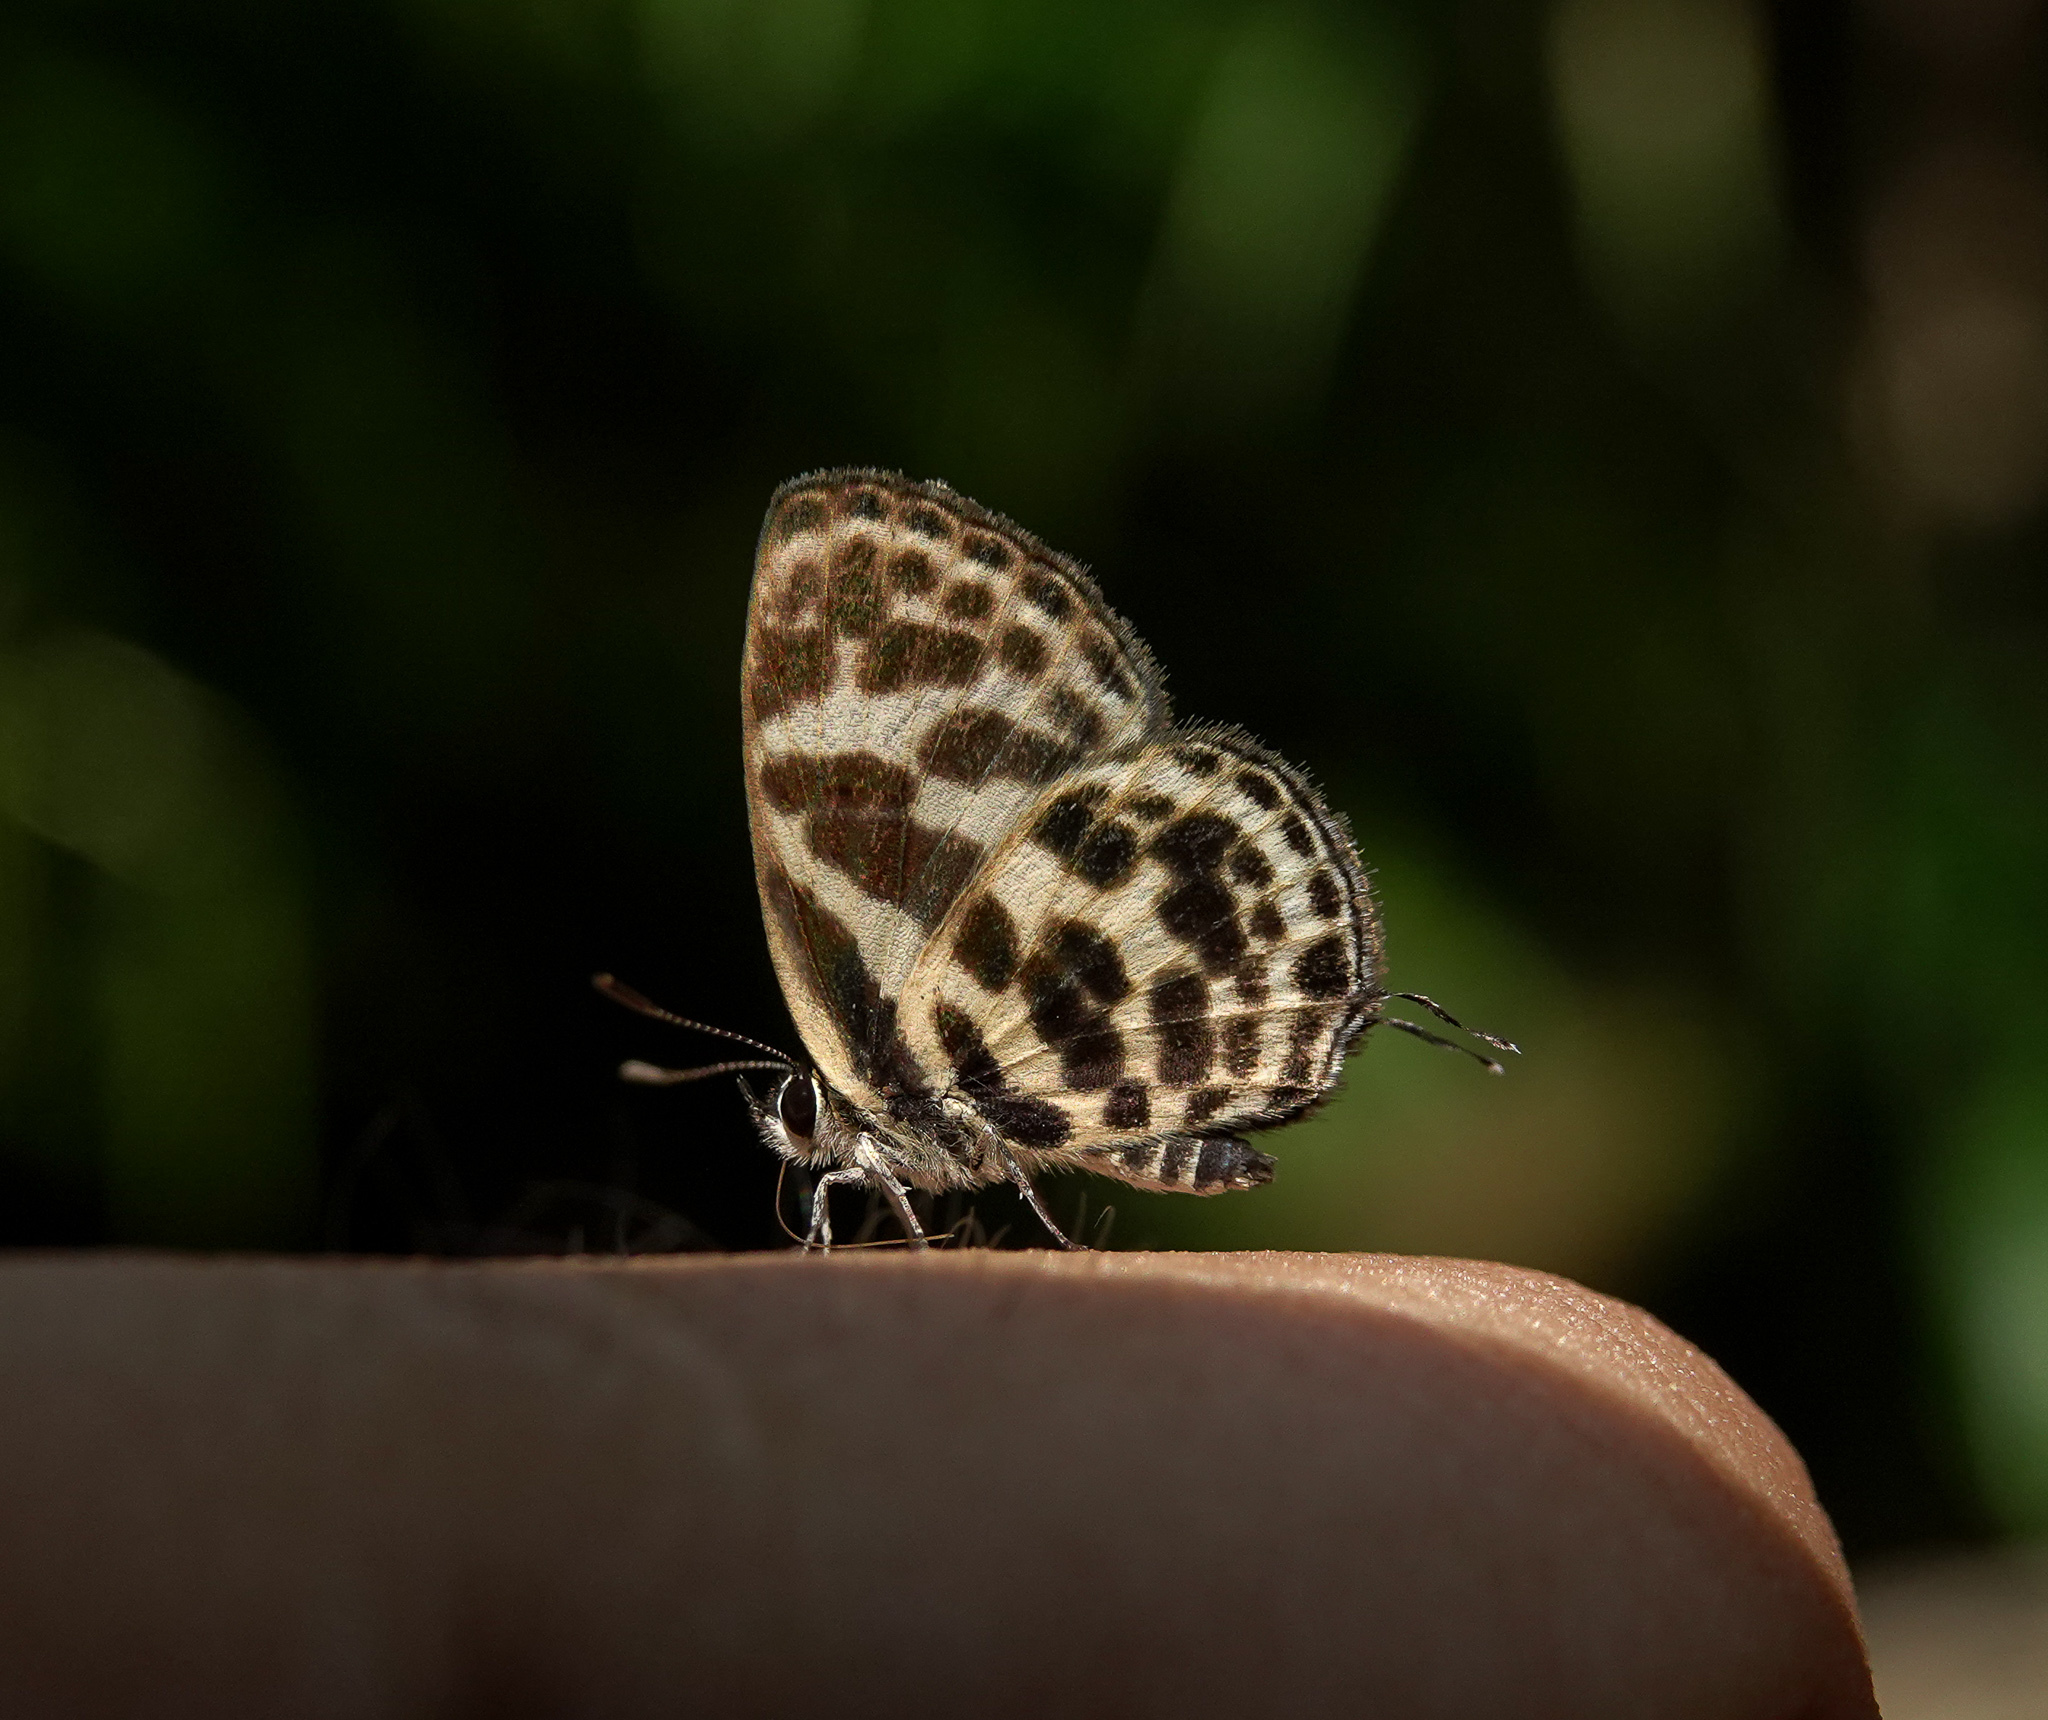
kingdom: Animalia
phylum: Arthropoda
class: Insecta
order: Lepidoptera
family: Lycaenidae
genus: Tarucus
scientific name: Tarucus
